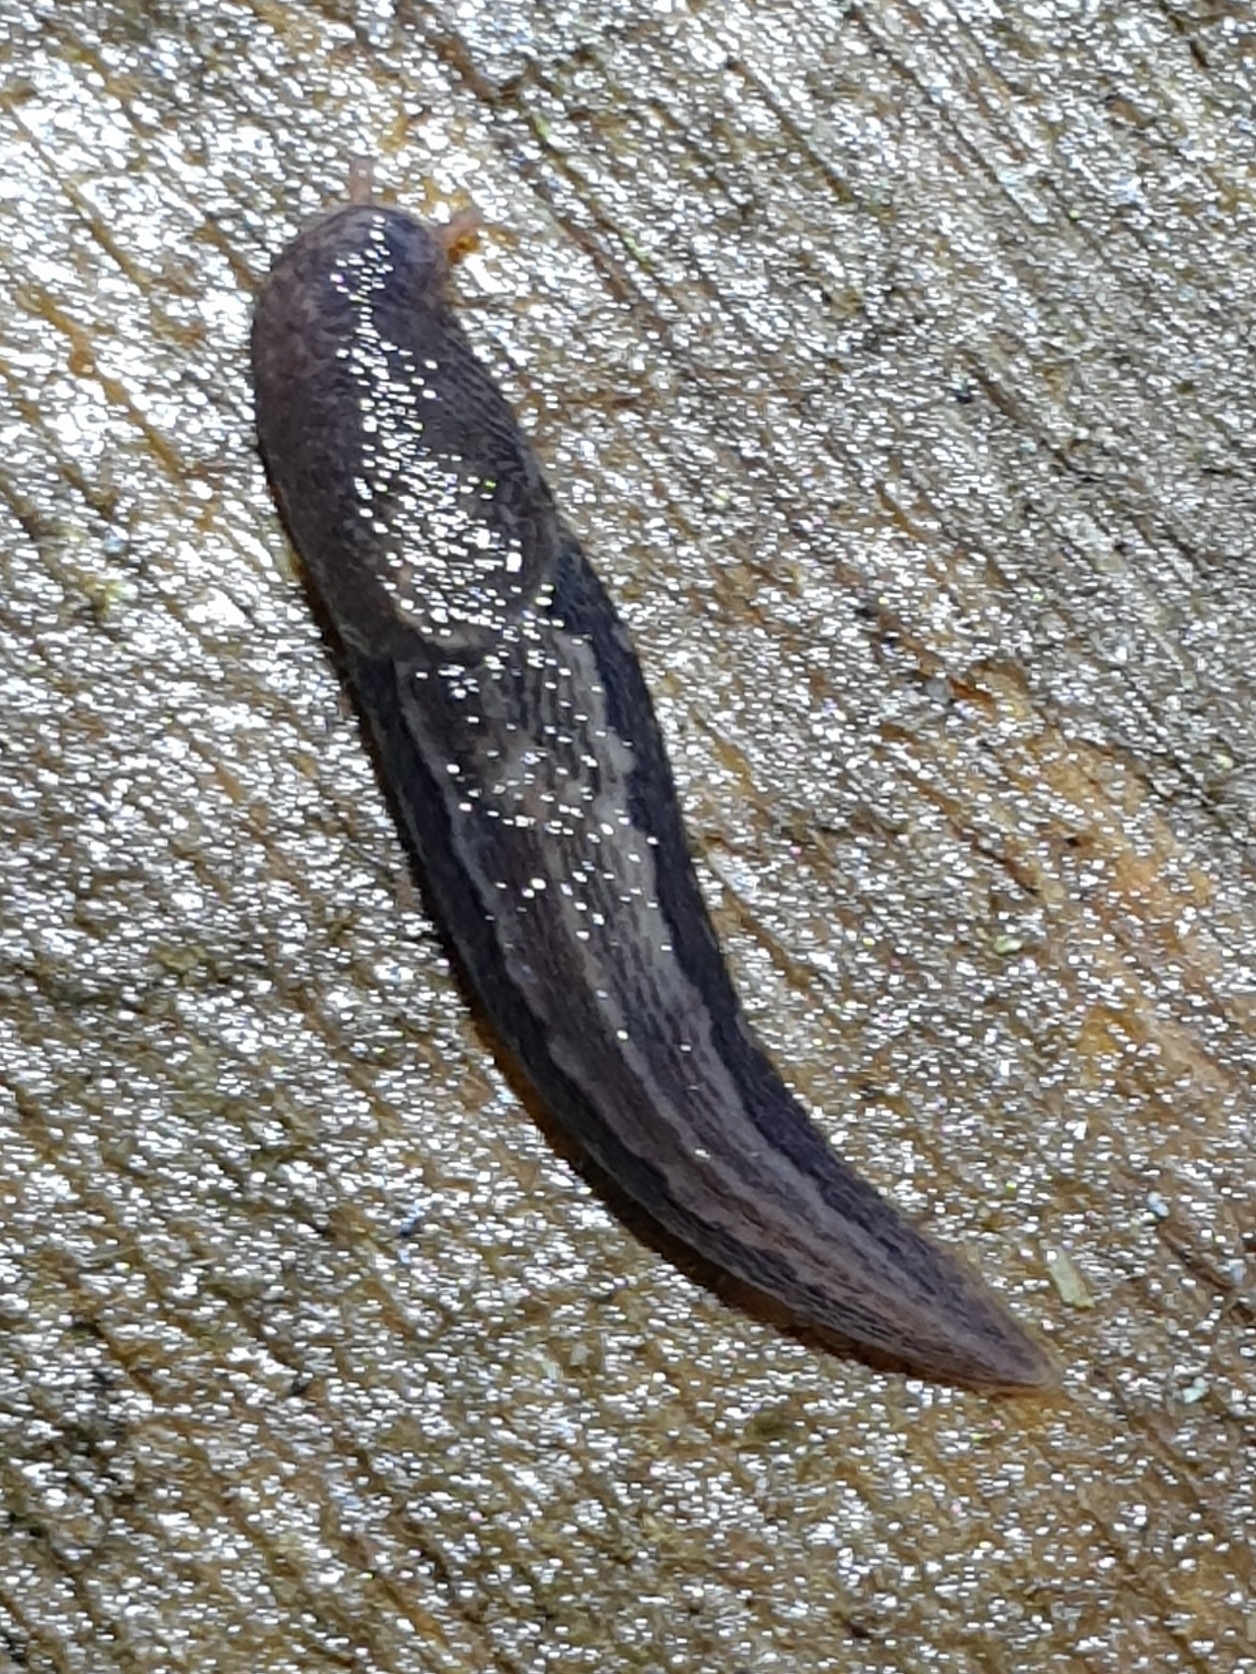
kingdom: Animalia
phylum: Mollusca
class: Gastropoda
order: Stylommatophora
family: Limacidae
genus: Limax
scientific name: Limax maximus
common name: Great grey slug
